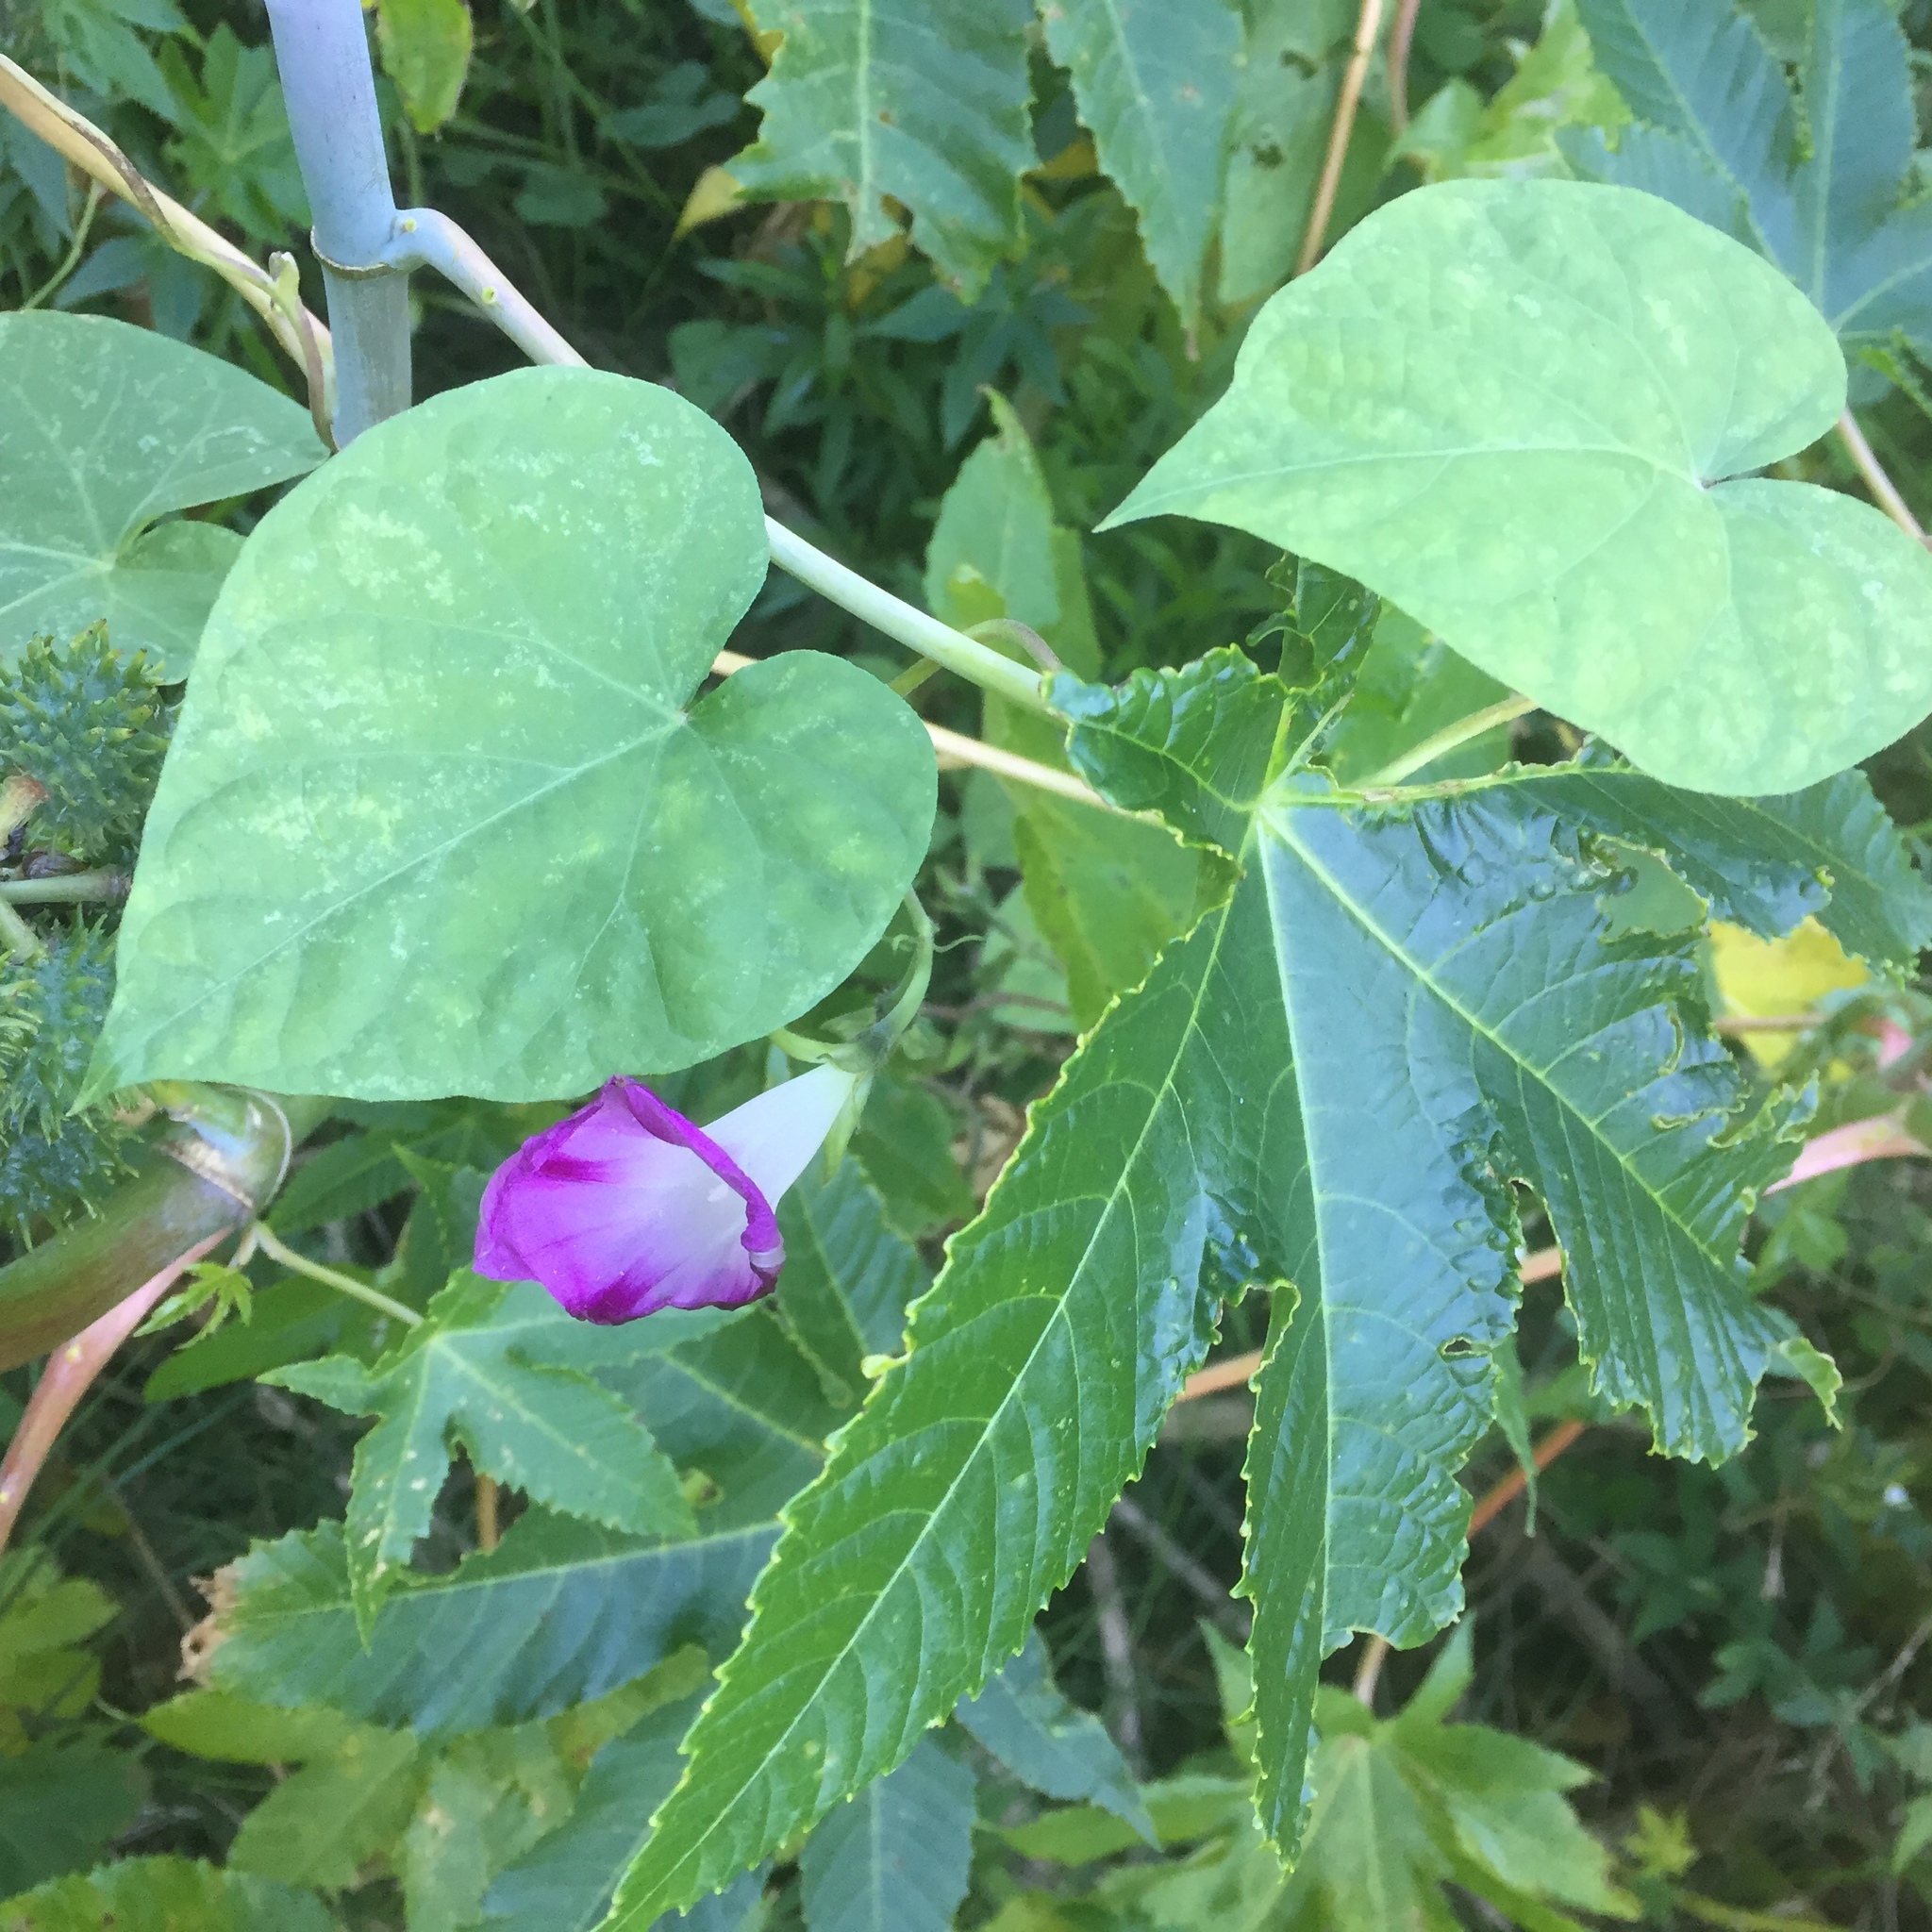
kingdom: Plantae
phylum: Tracheophyta
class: Magnoliopsida
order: Solanales
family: Convolvulaceae
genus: Ipomoea
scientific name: Ipomoea purpurea
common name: Common morning-glory
